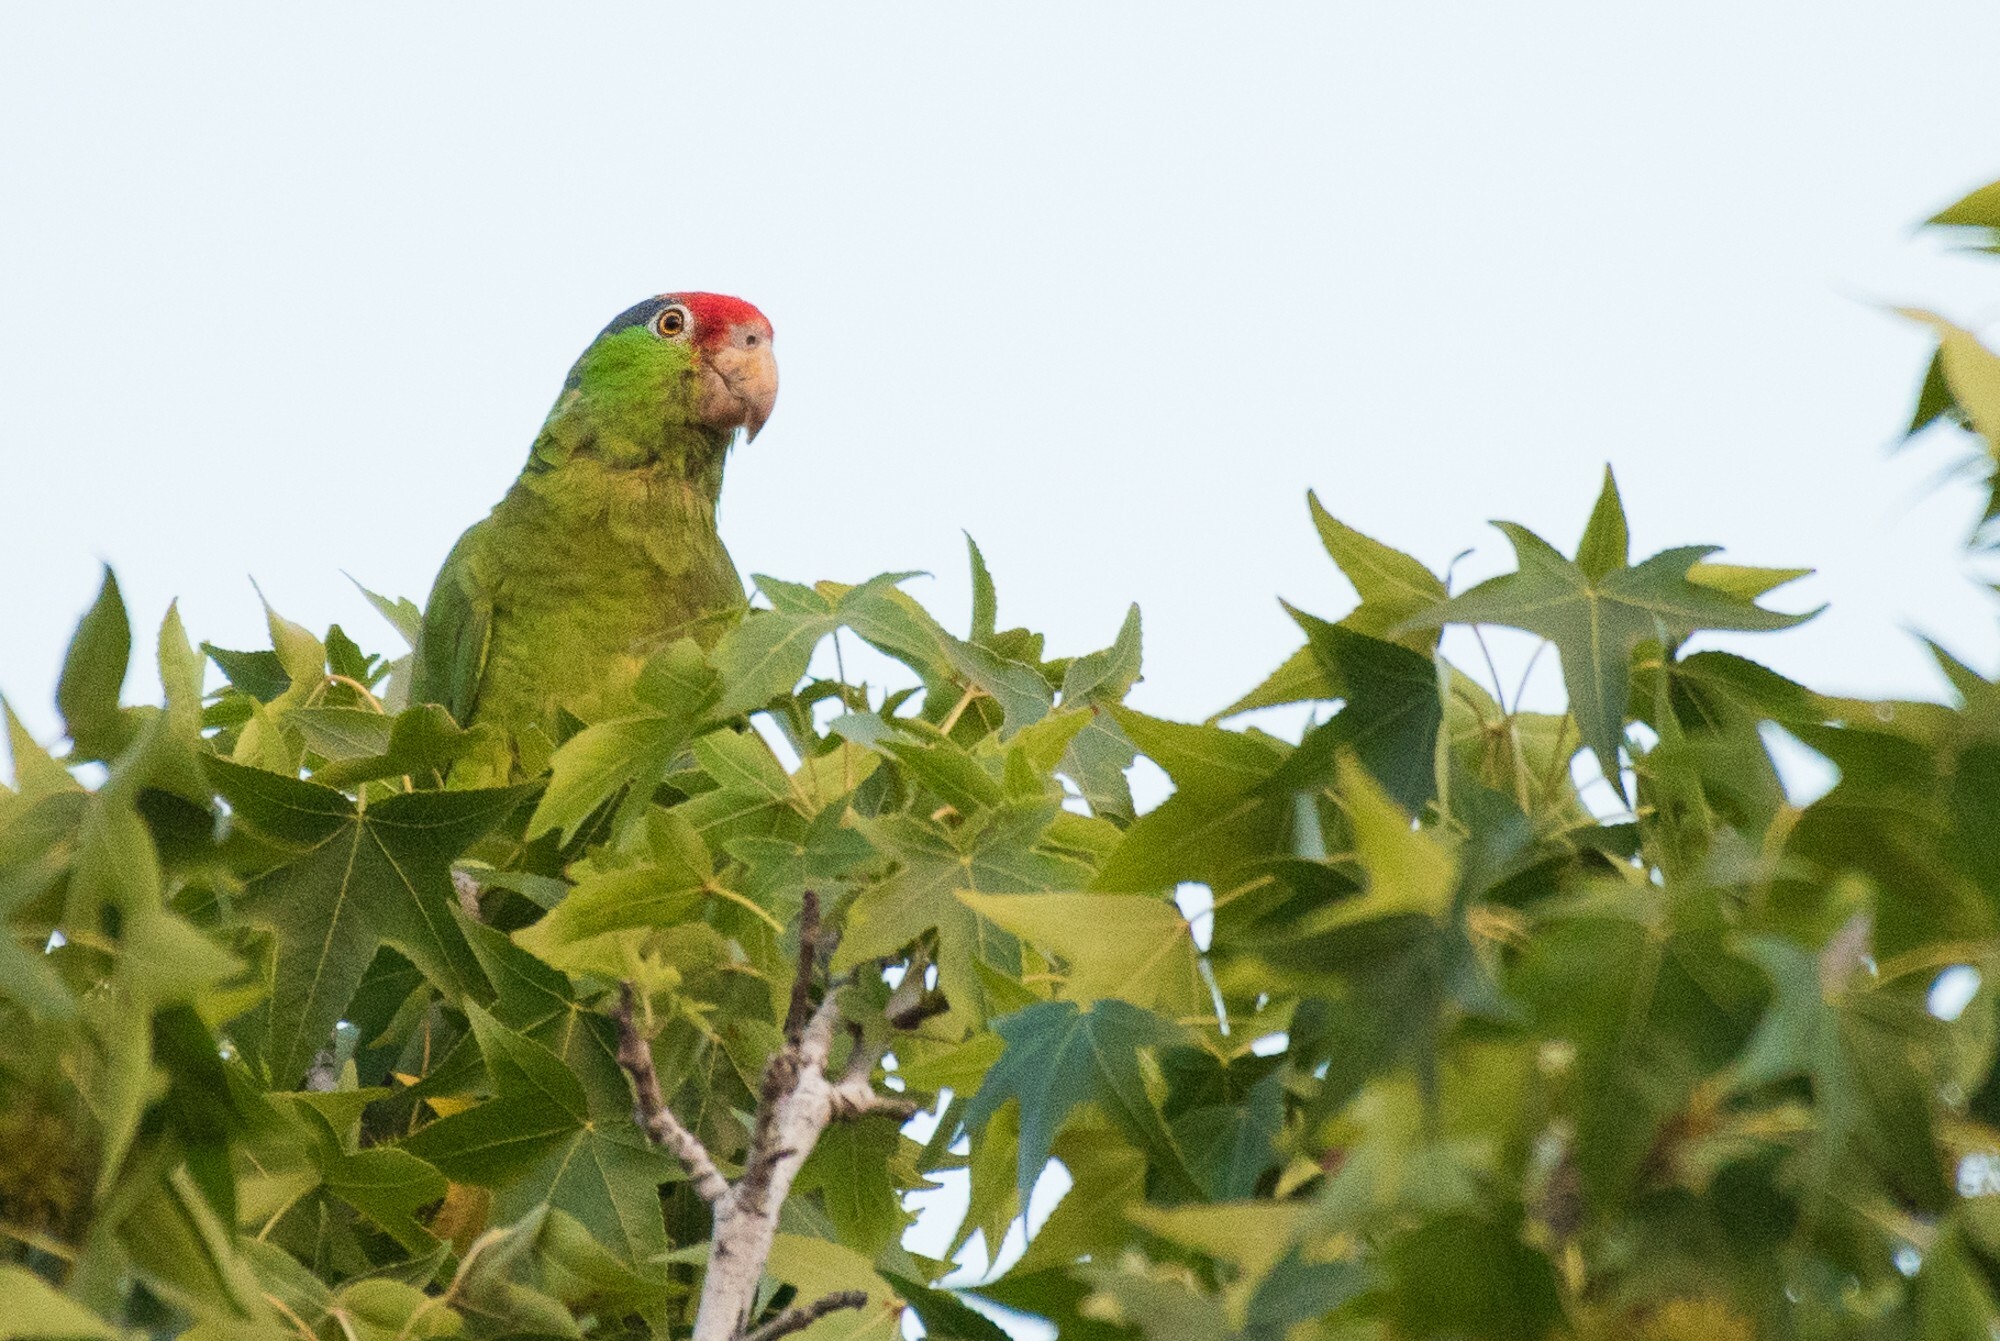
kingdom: Animalia
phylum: Chordata
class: Aves
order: Psittaciformes
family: Psittacidae
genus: Amazona
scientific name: Amazona viridigenalis
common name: Red-crowned amazon
